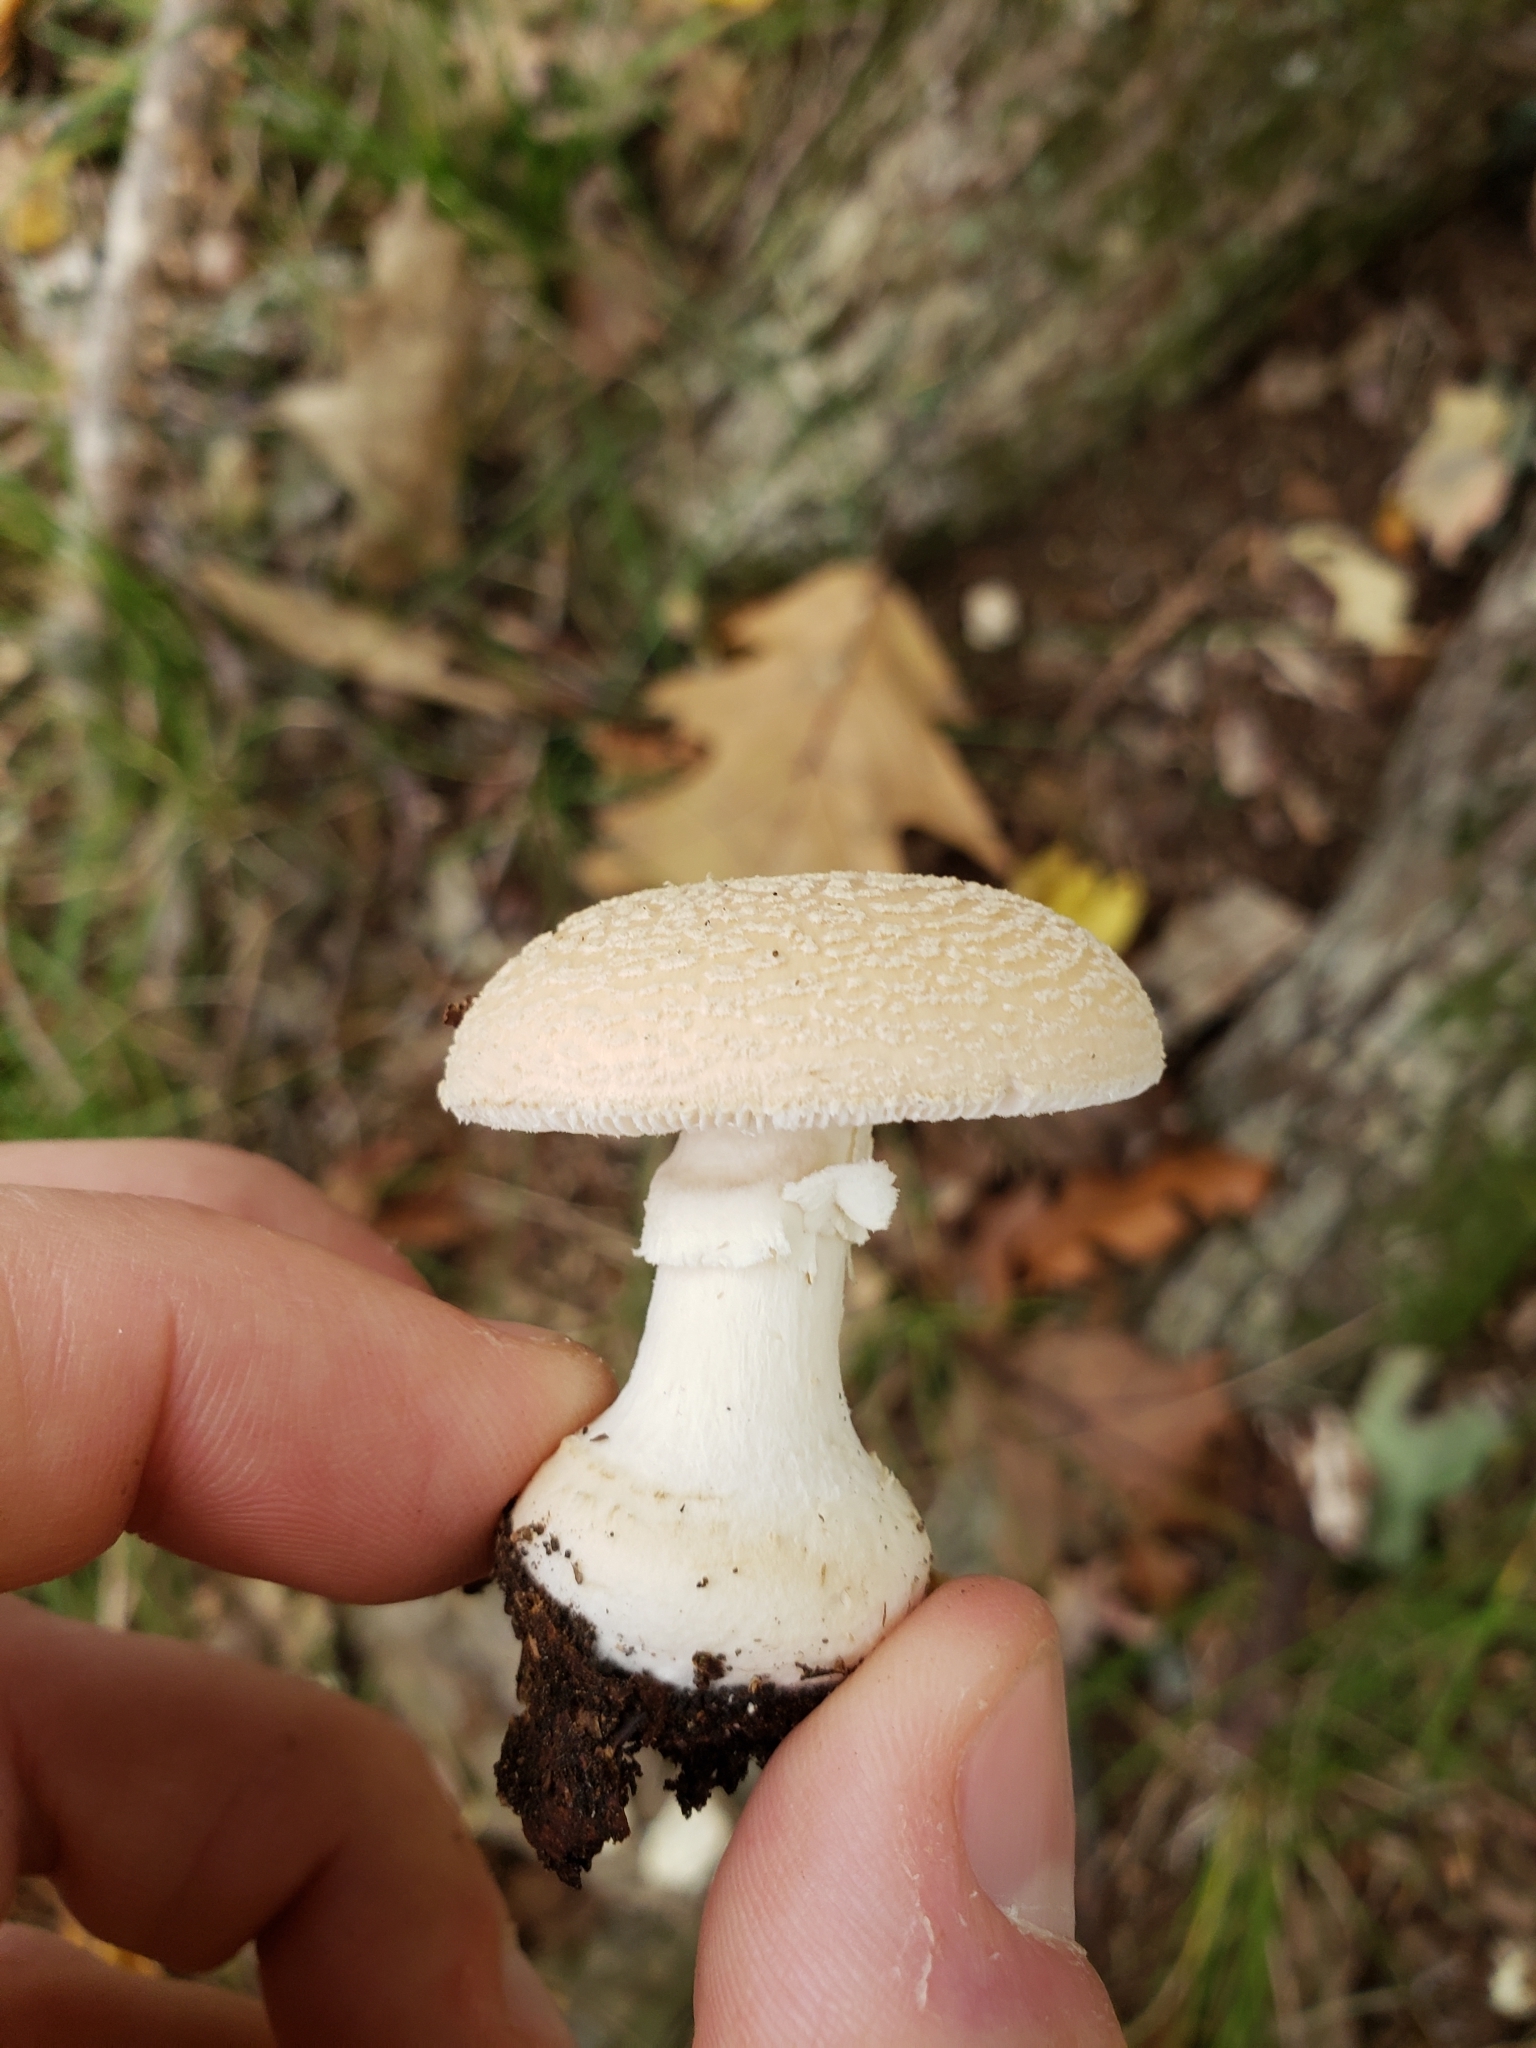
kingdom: Fungi
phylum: Basidiomycota
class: Agaricomycetes
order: Agaricales
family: Amanitaceae
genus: Amanita
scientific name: Amanita crenulata
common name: Poison champagne amanita
